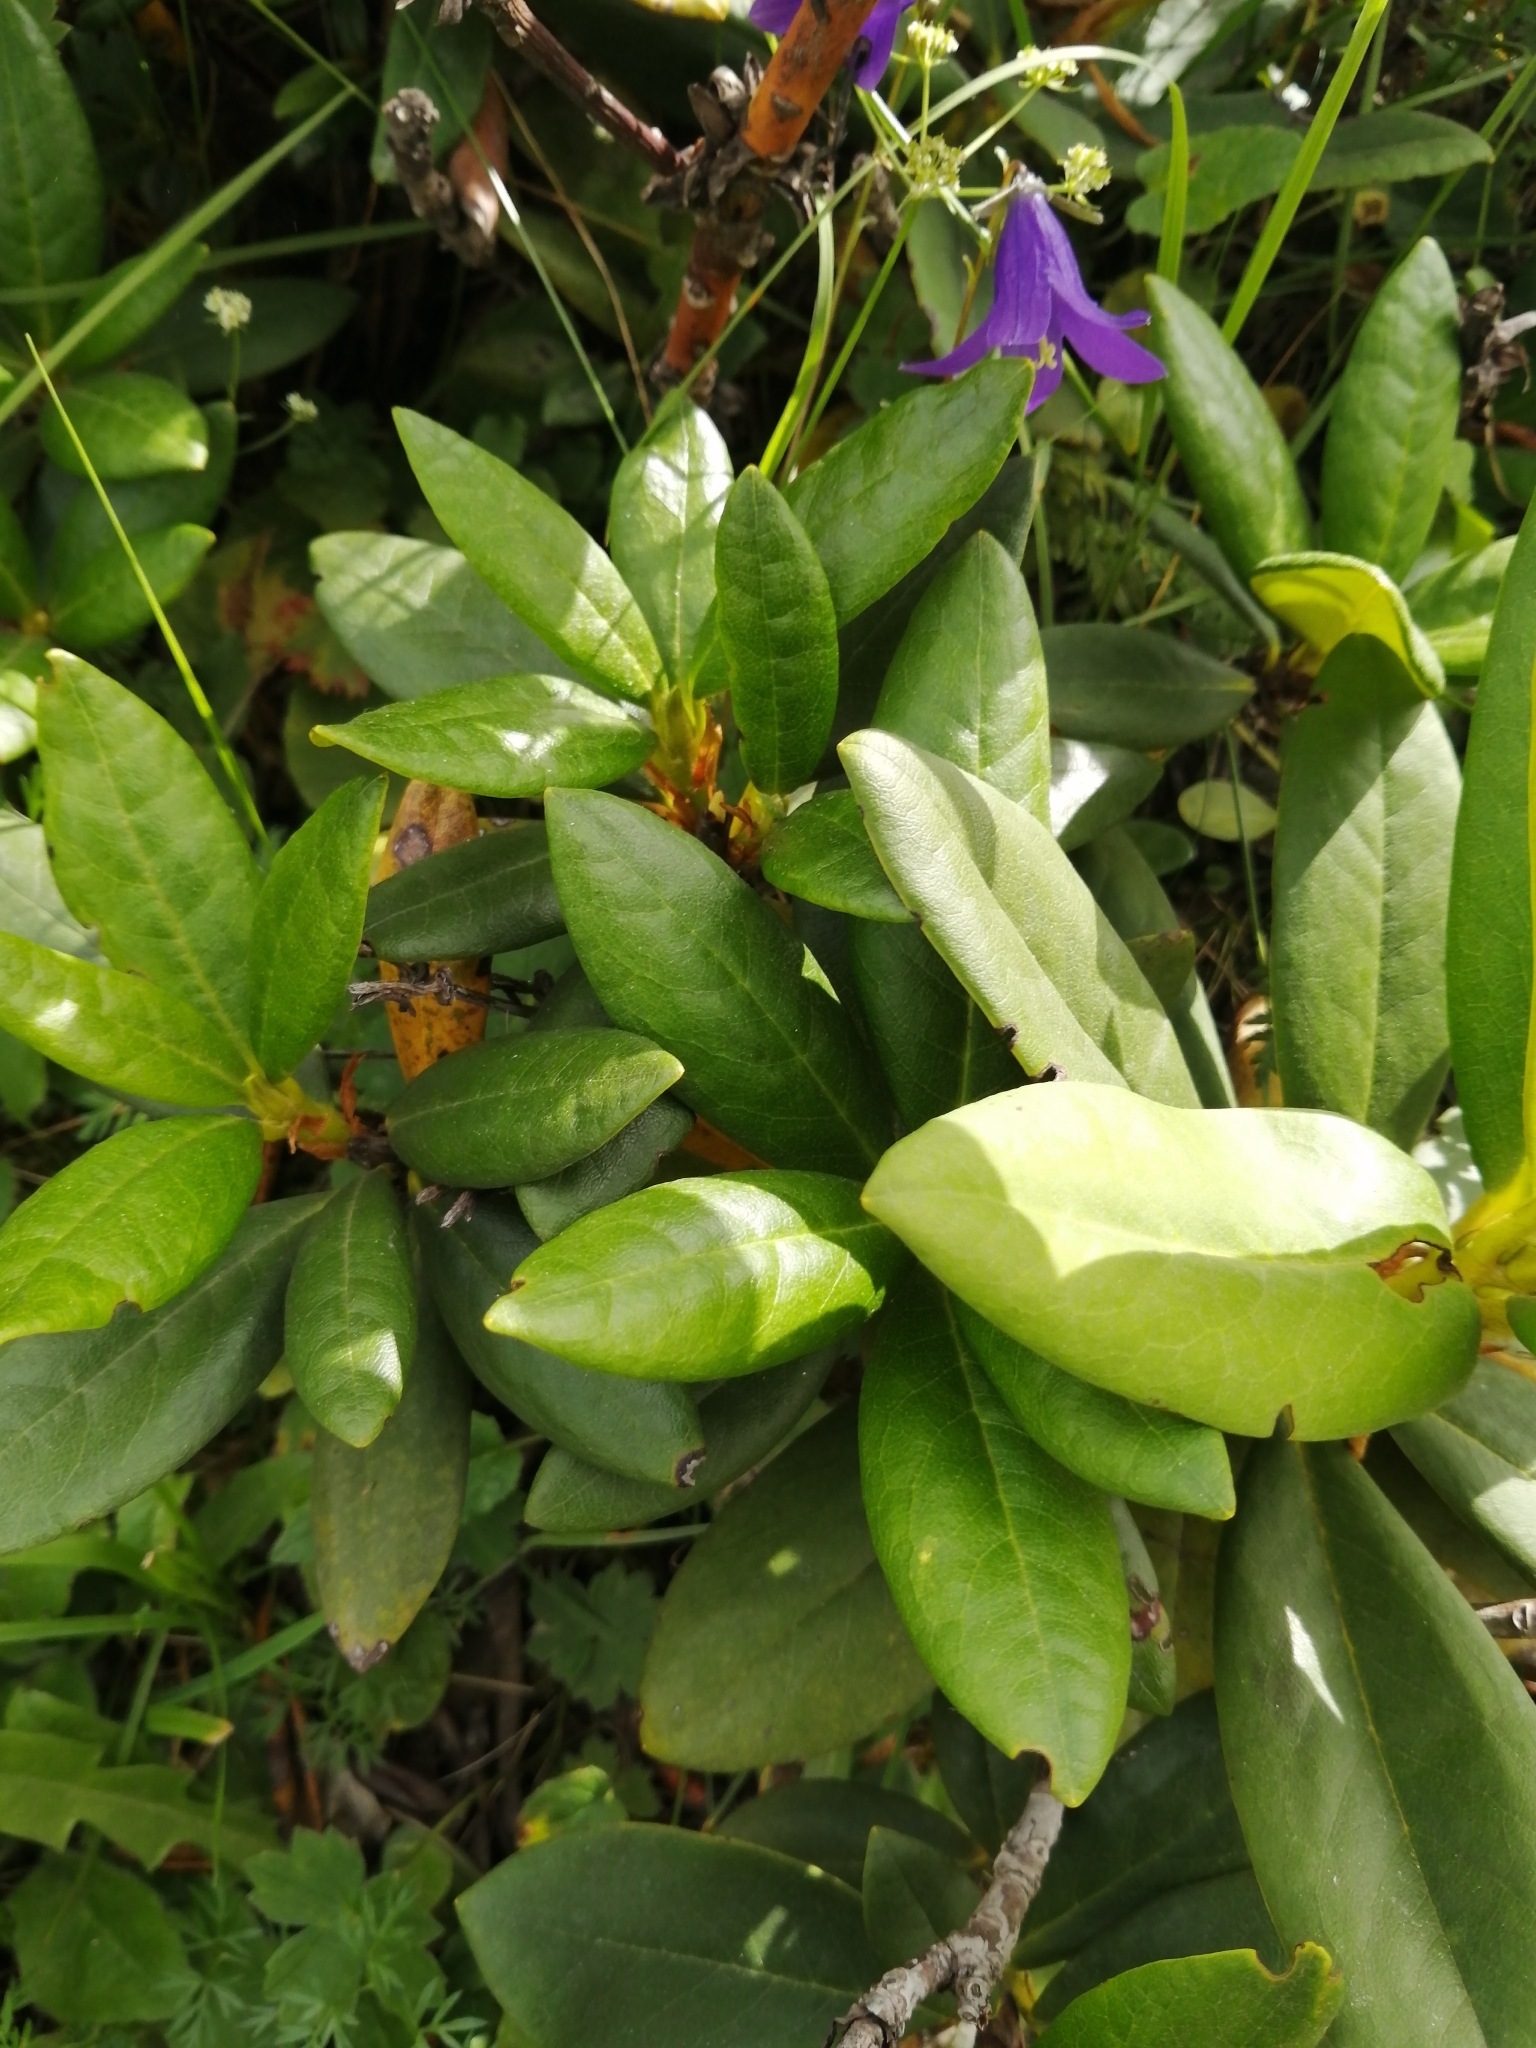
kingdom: Plantae
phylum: Tracheophyta
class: Magnoliopsida
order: Ericales
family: Ericaceae
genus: Rhododendron
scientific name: Rhododendron caucasicum
